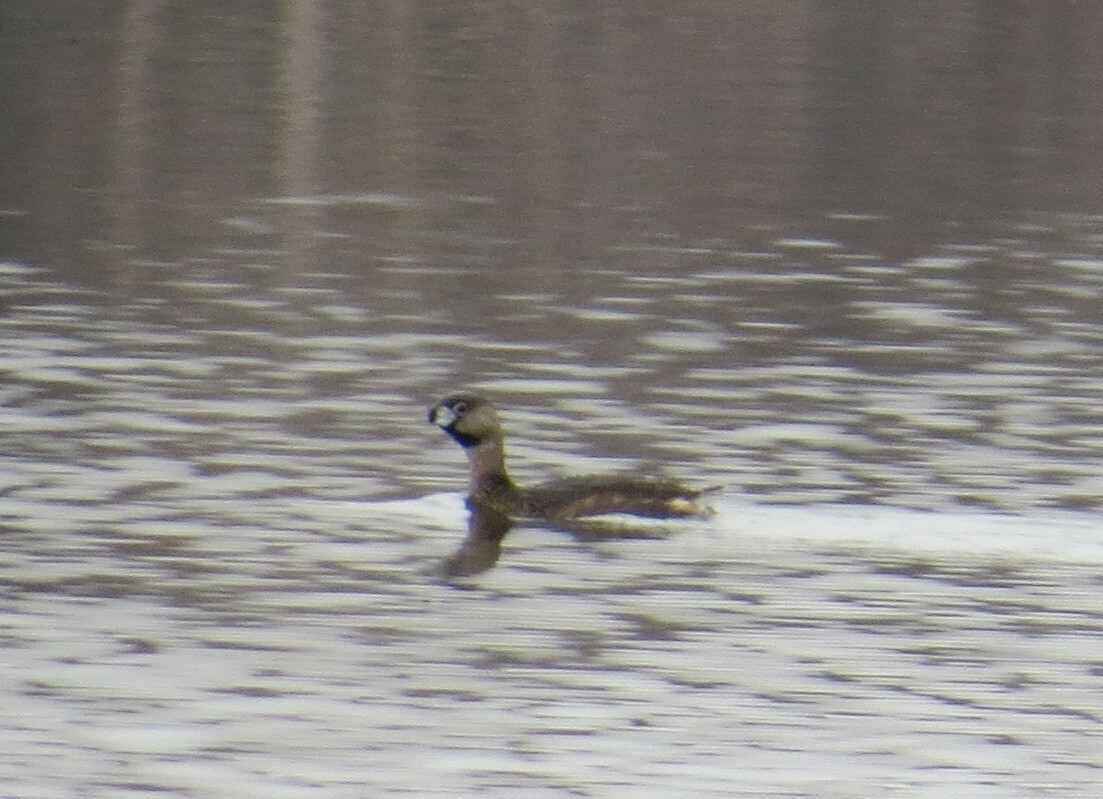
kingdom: Animalia
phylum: Chordata
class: Aves
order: Podicipediformes
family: Podicipedidae
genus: Podilymbus
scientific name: Podilymbus podiceps
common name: Pied-billed grebe
